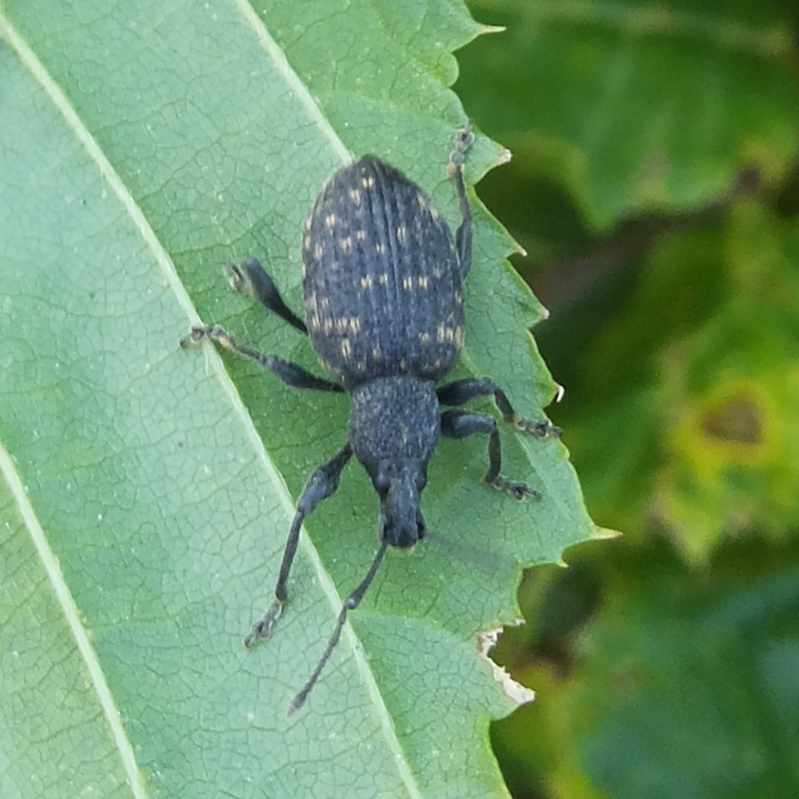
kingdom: Animalia
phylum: Arthropoda
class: Insecta
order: Coleoptera
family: Curculionidae
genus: Otiorhynchus
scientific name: Otiorhynchus sulcatus
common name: Black vine weevil
